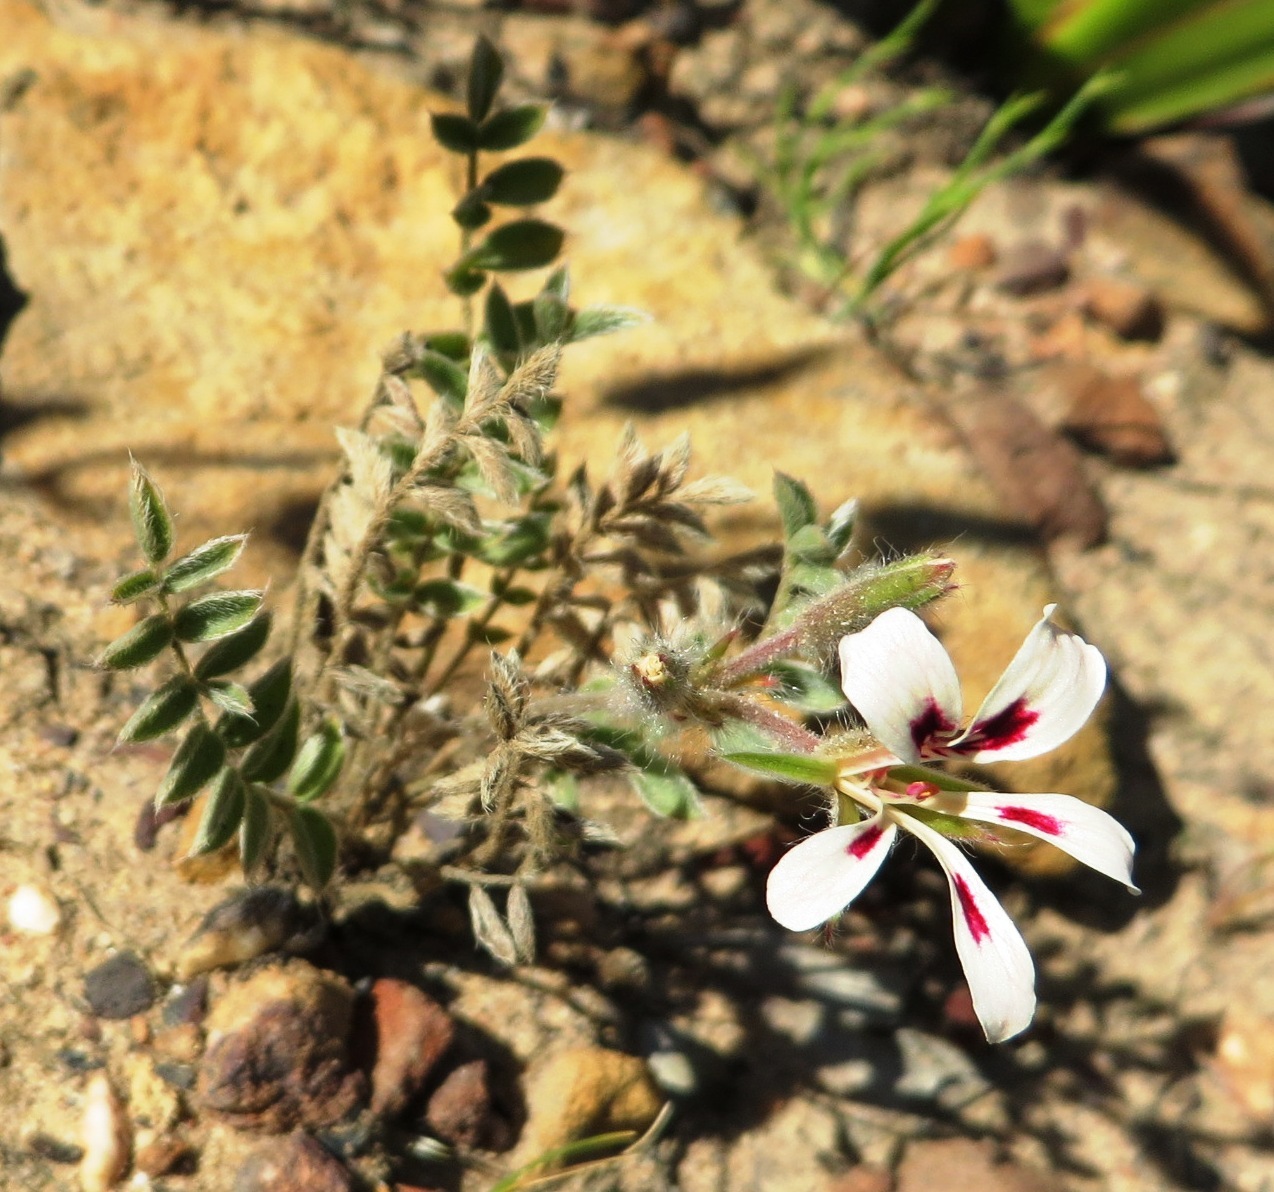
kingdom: Plantae
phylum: Tracheophyta
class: Magnoliopsida
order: Geraniales
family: Geraniaceae
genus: Pelargonium
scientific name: Pelargonium trifoliolatum
